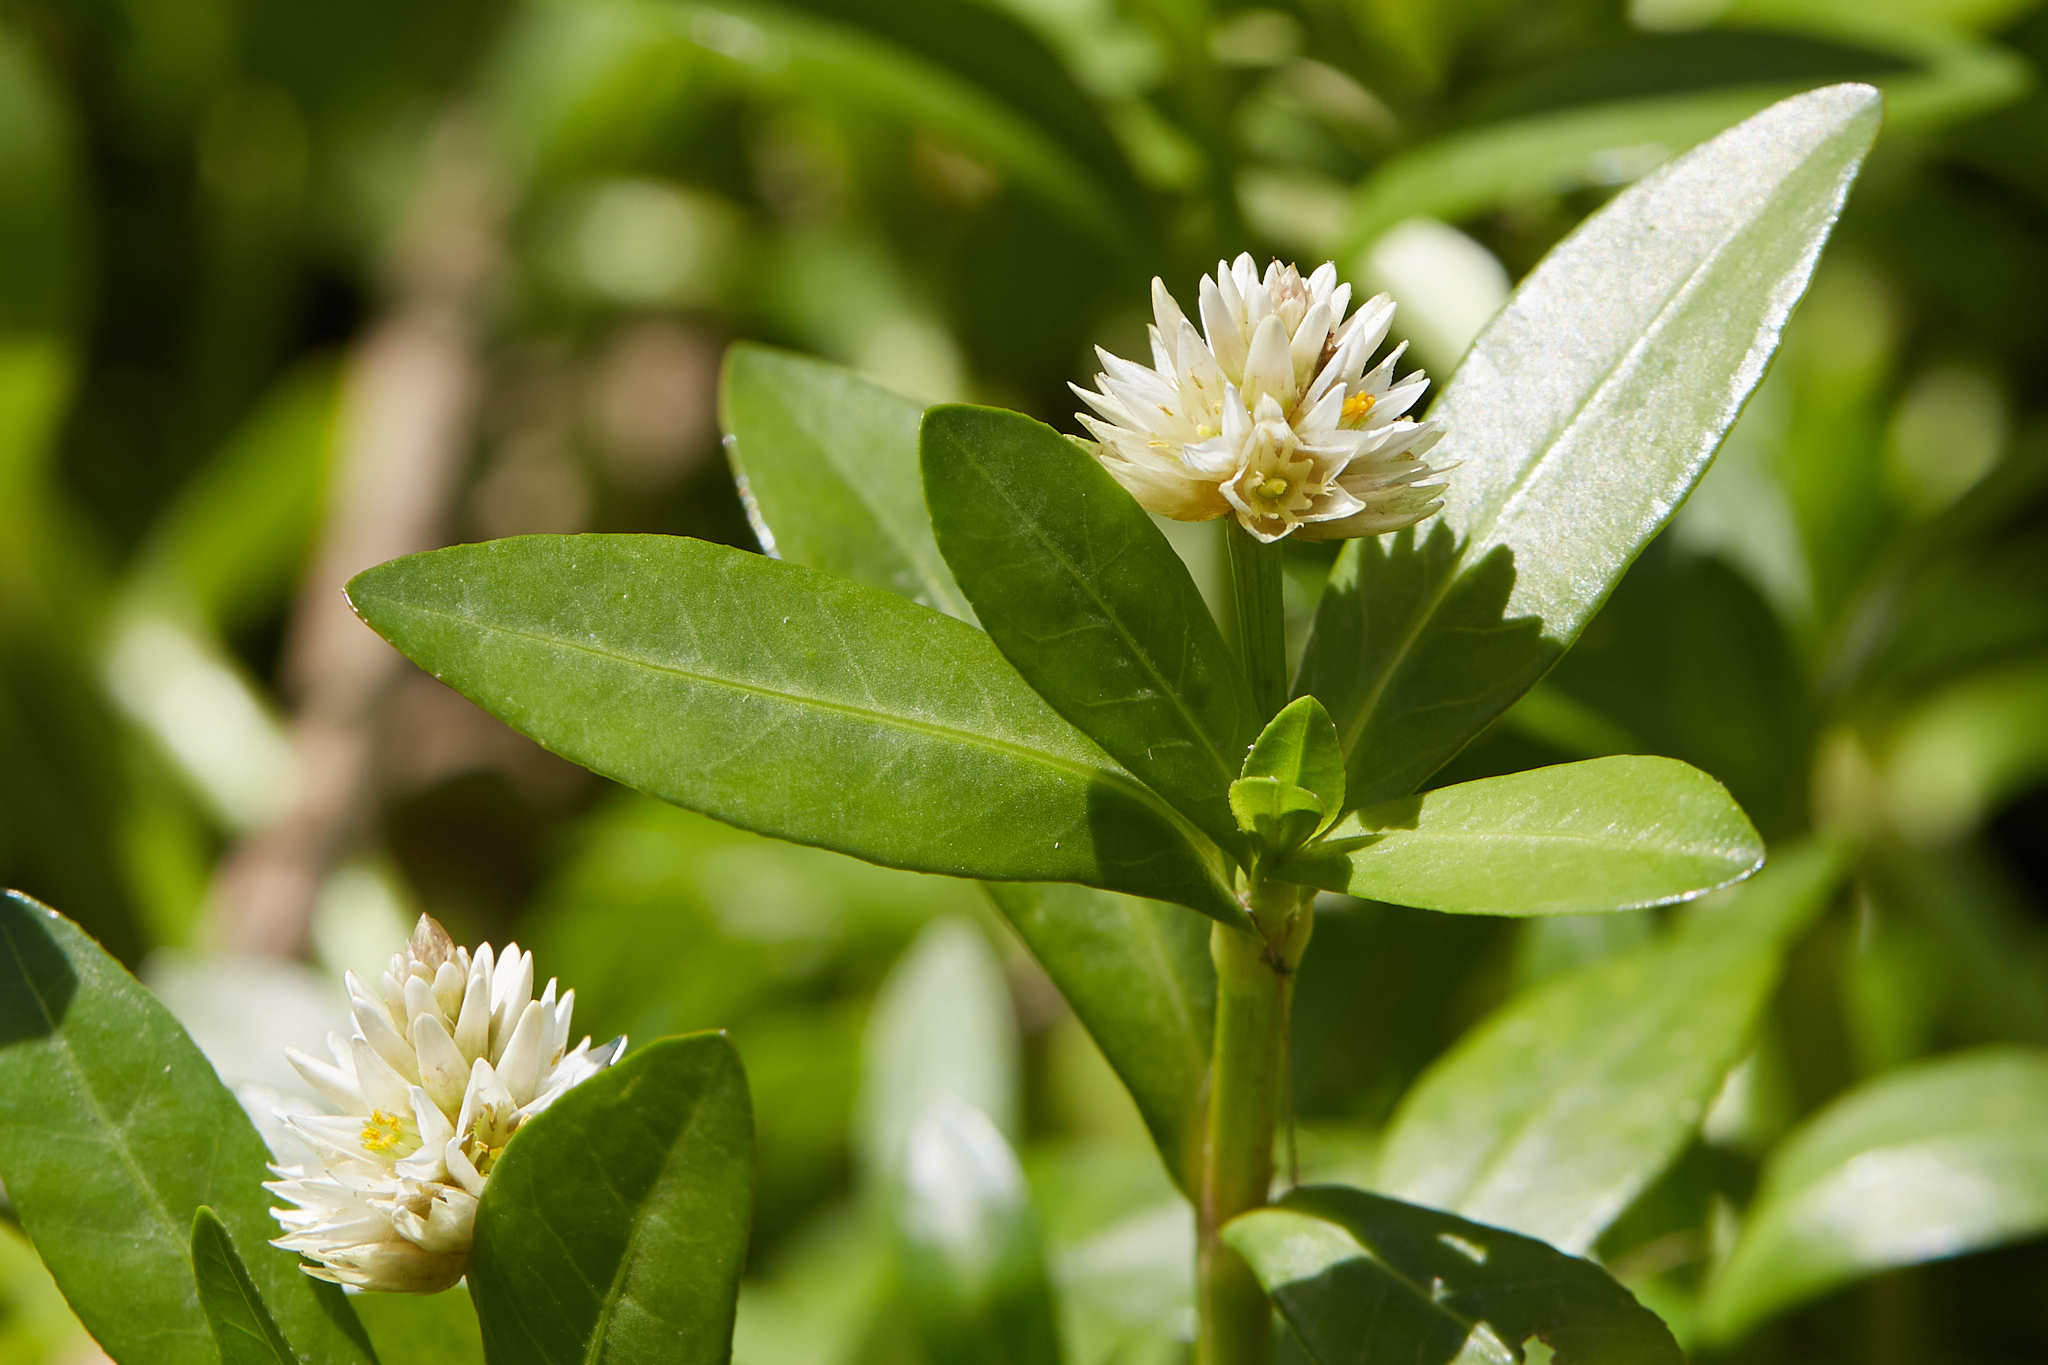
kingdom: Plantae
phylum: Tracheophyta
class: Magnoliopsida
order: Caryophyllales
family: Amaranthaceae
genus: Alternanthera
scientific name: Alternanthera philoxeroides
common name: Alligatorweed
